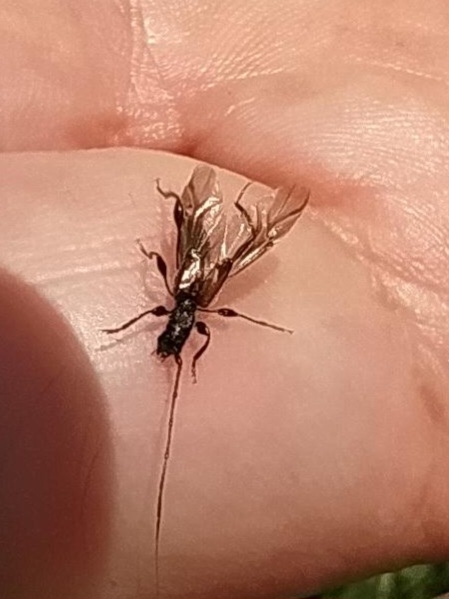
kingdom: Animalia
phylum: Arthropoda
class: Insecta
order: Coleoptera
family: Cerambycidae
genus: Molorchus
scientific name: Molorchus minor
